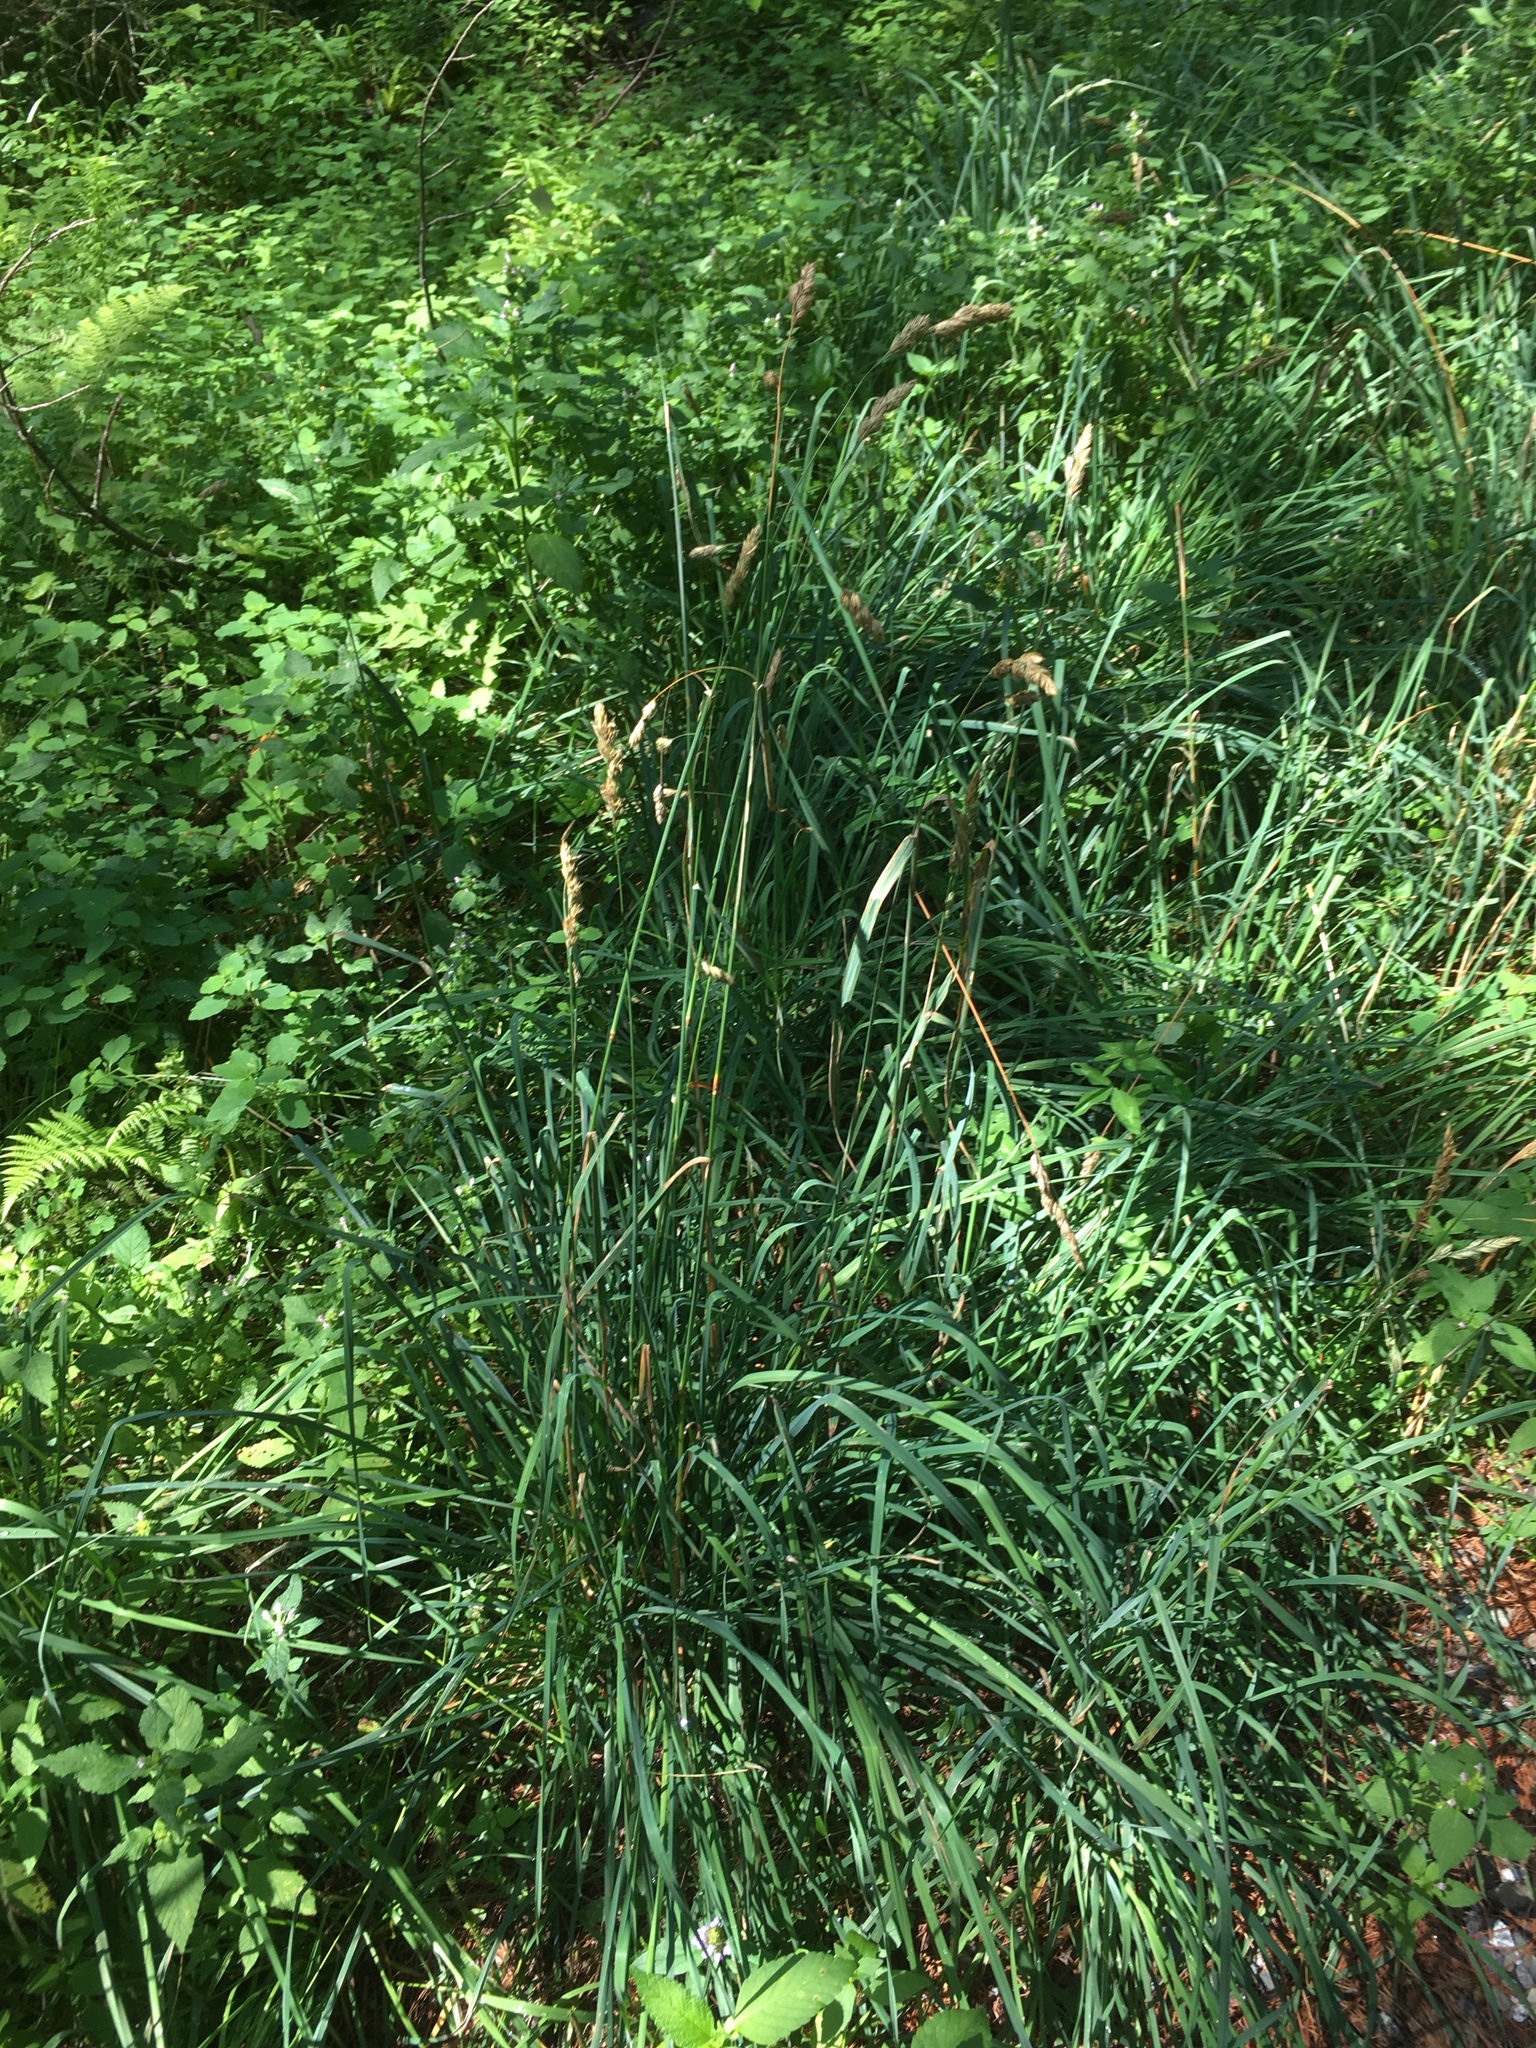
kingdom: Plantae
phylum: Tracheophyta
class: Liliopsida
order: Poales
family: Poaceae
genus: Dactylis
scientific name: Dactylis glomerata
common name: Orchardgrass
